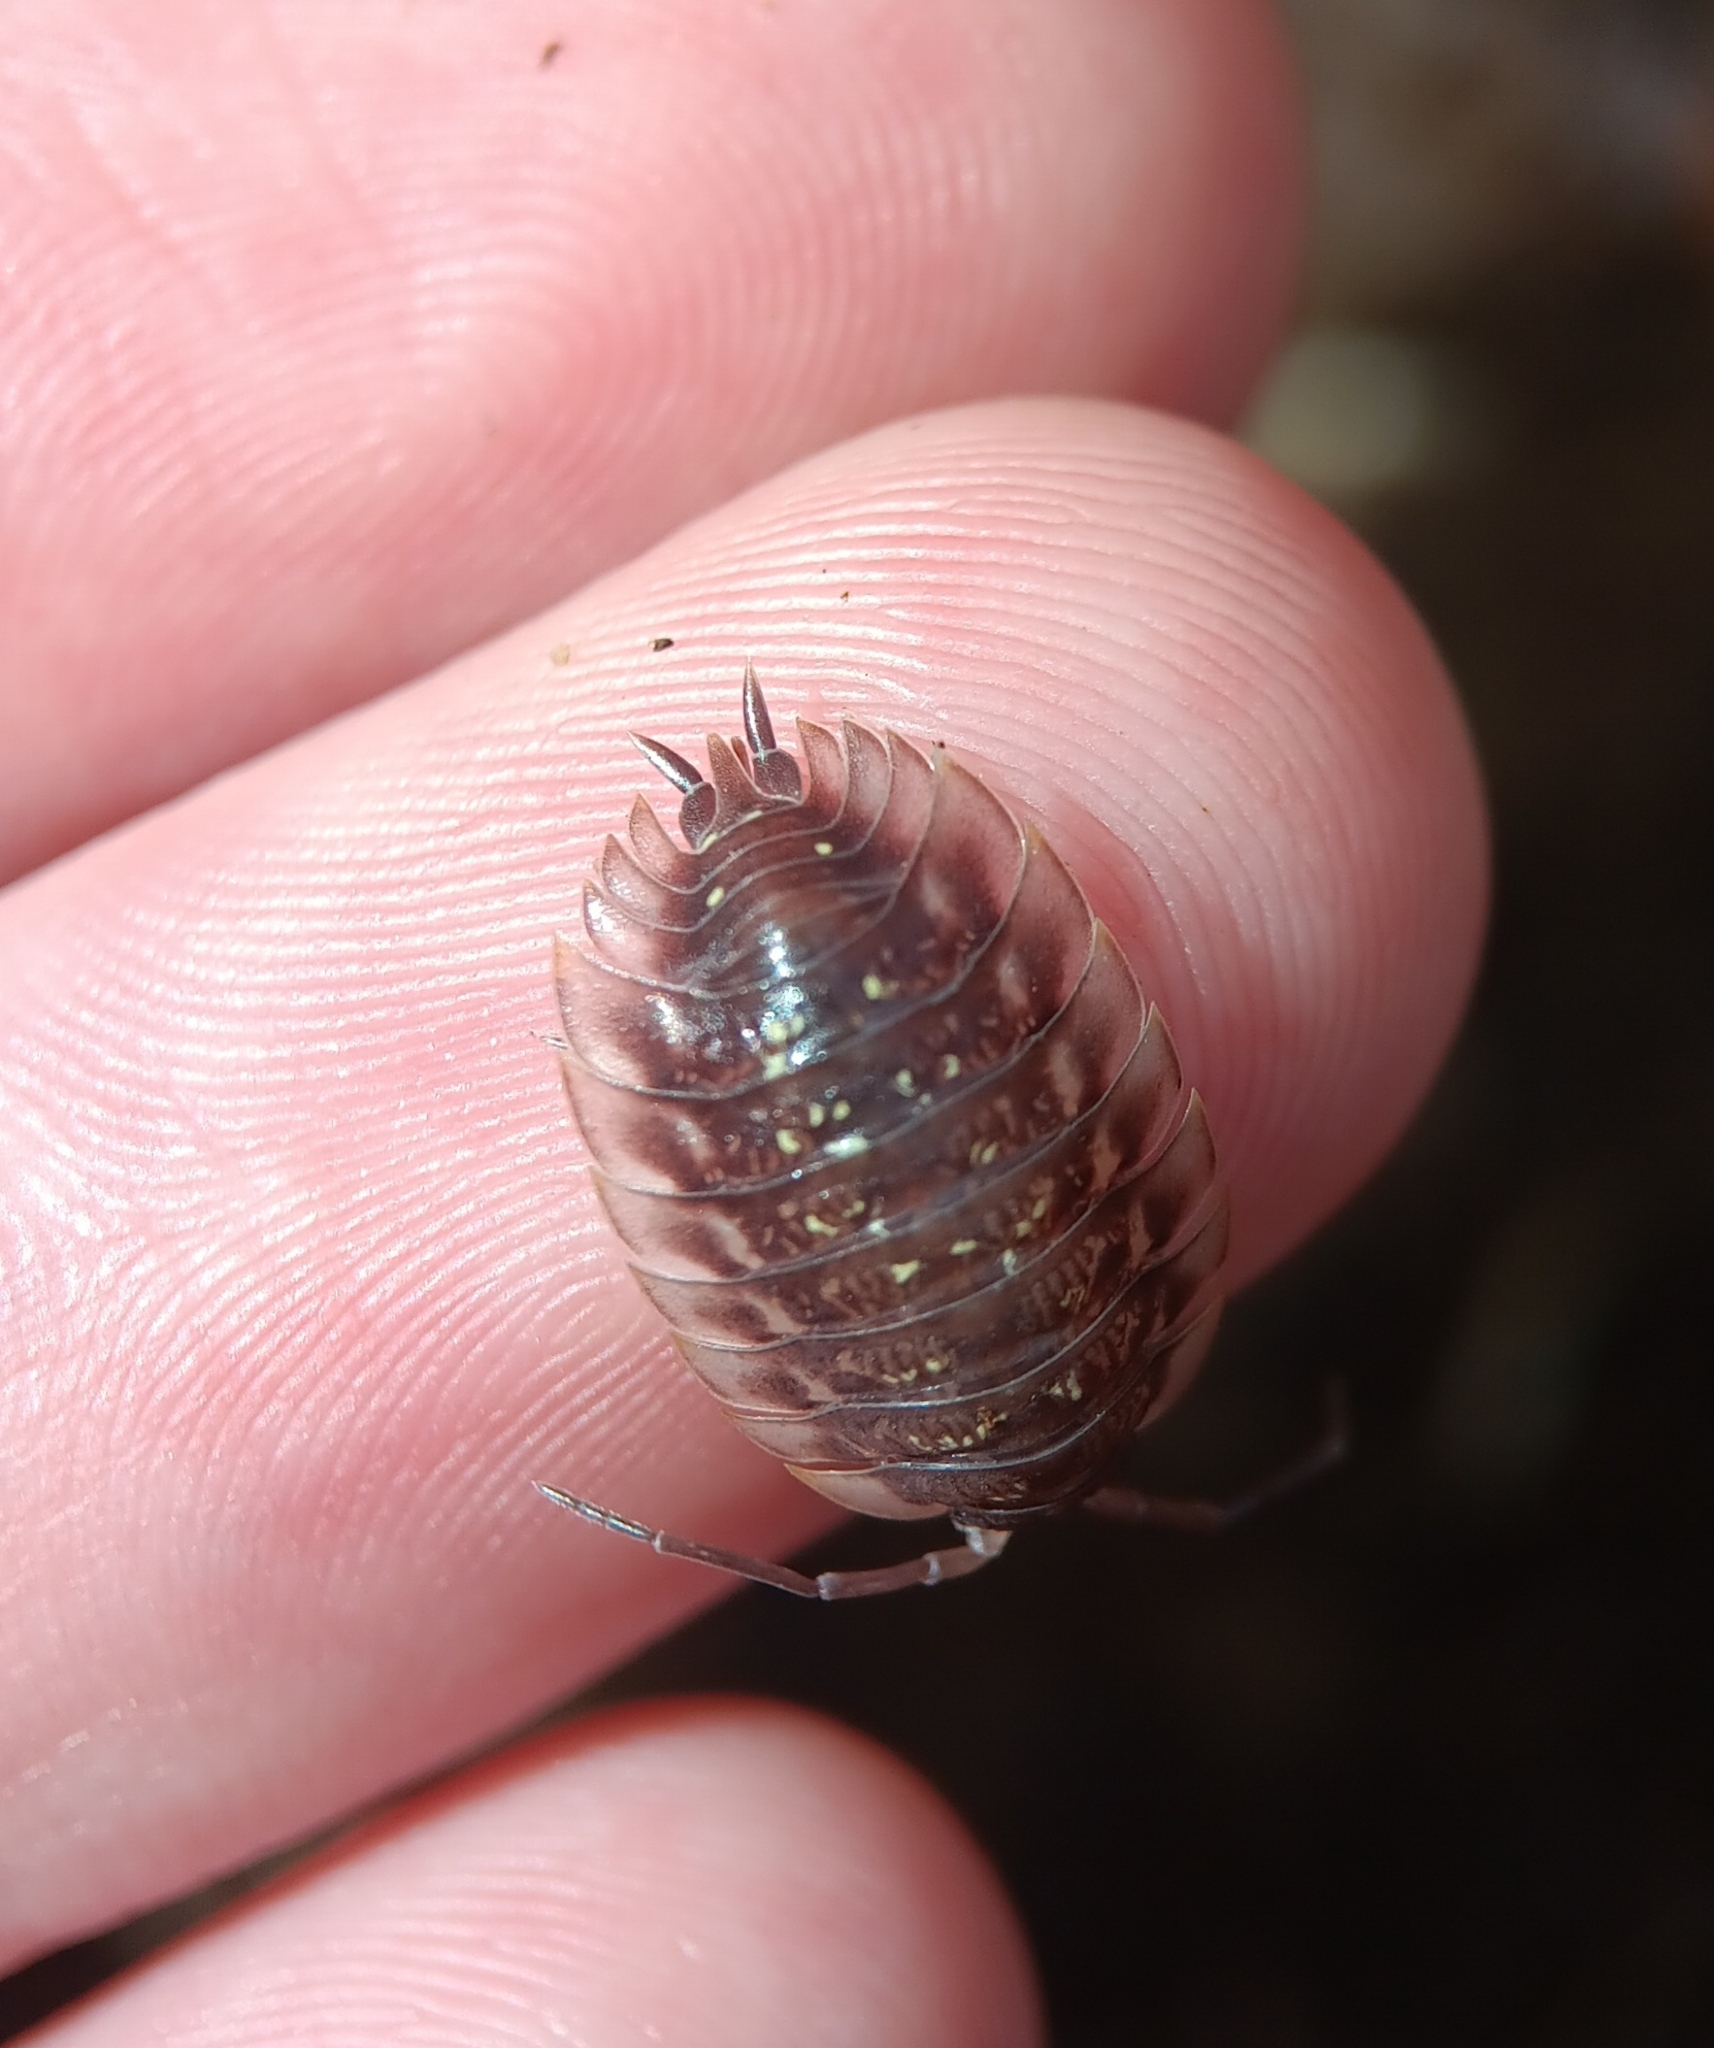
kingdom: Animalia
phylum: Arthropoda
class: Malacostraca
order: Isopoda
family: Oniscidae
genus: Oniscus
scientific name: Oniscus asellus
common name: Common shiny woodlouse
